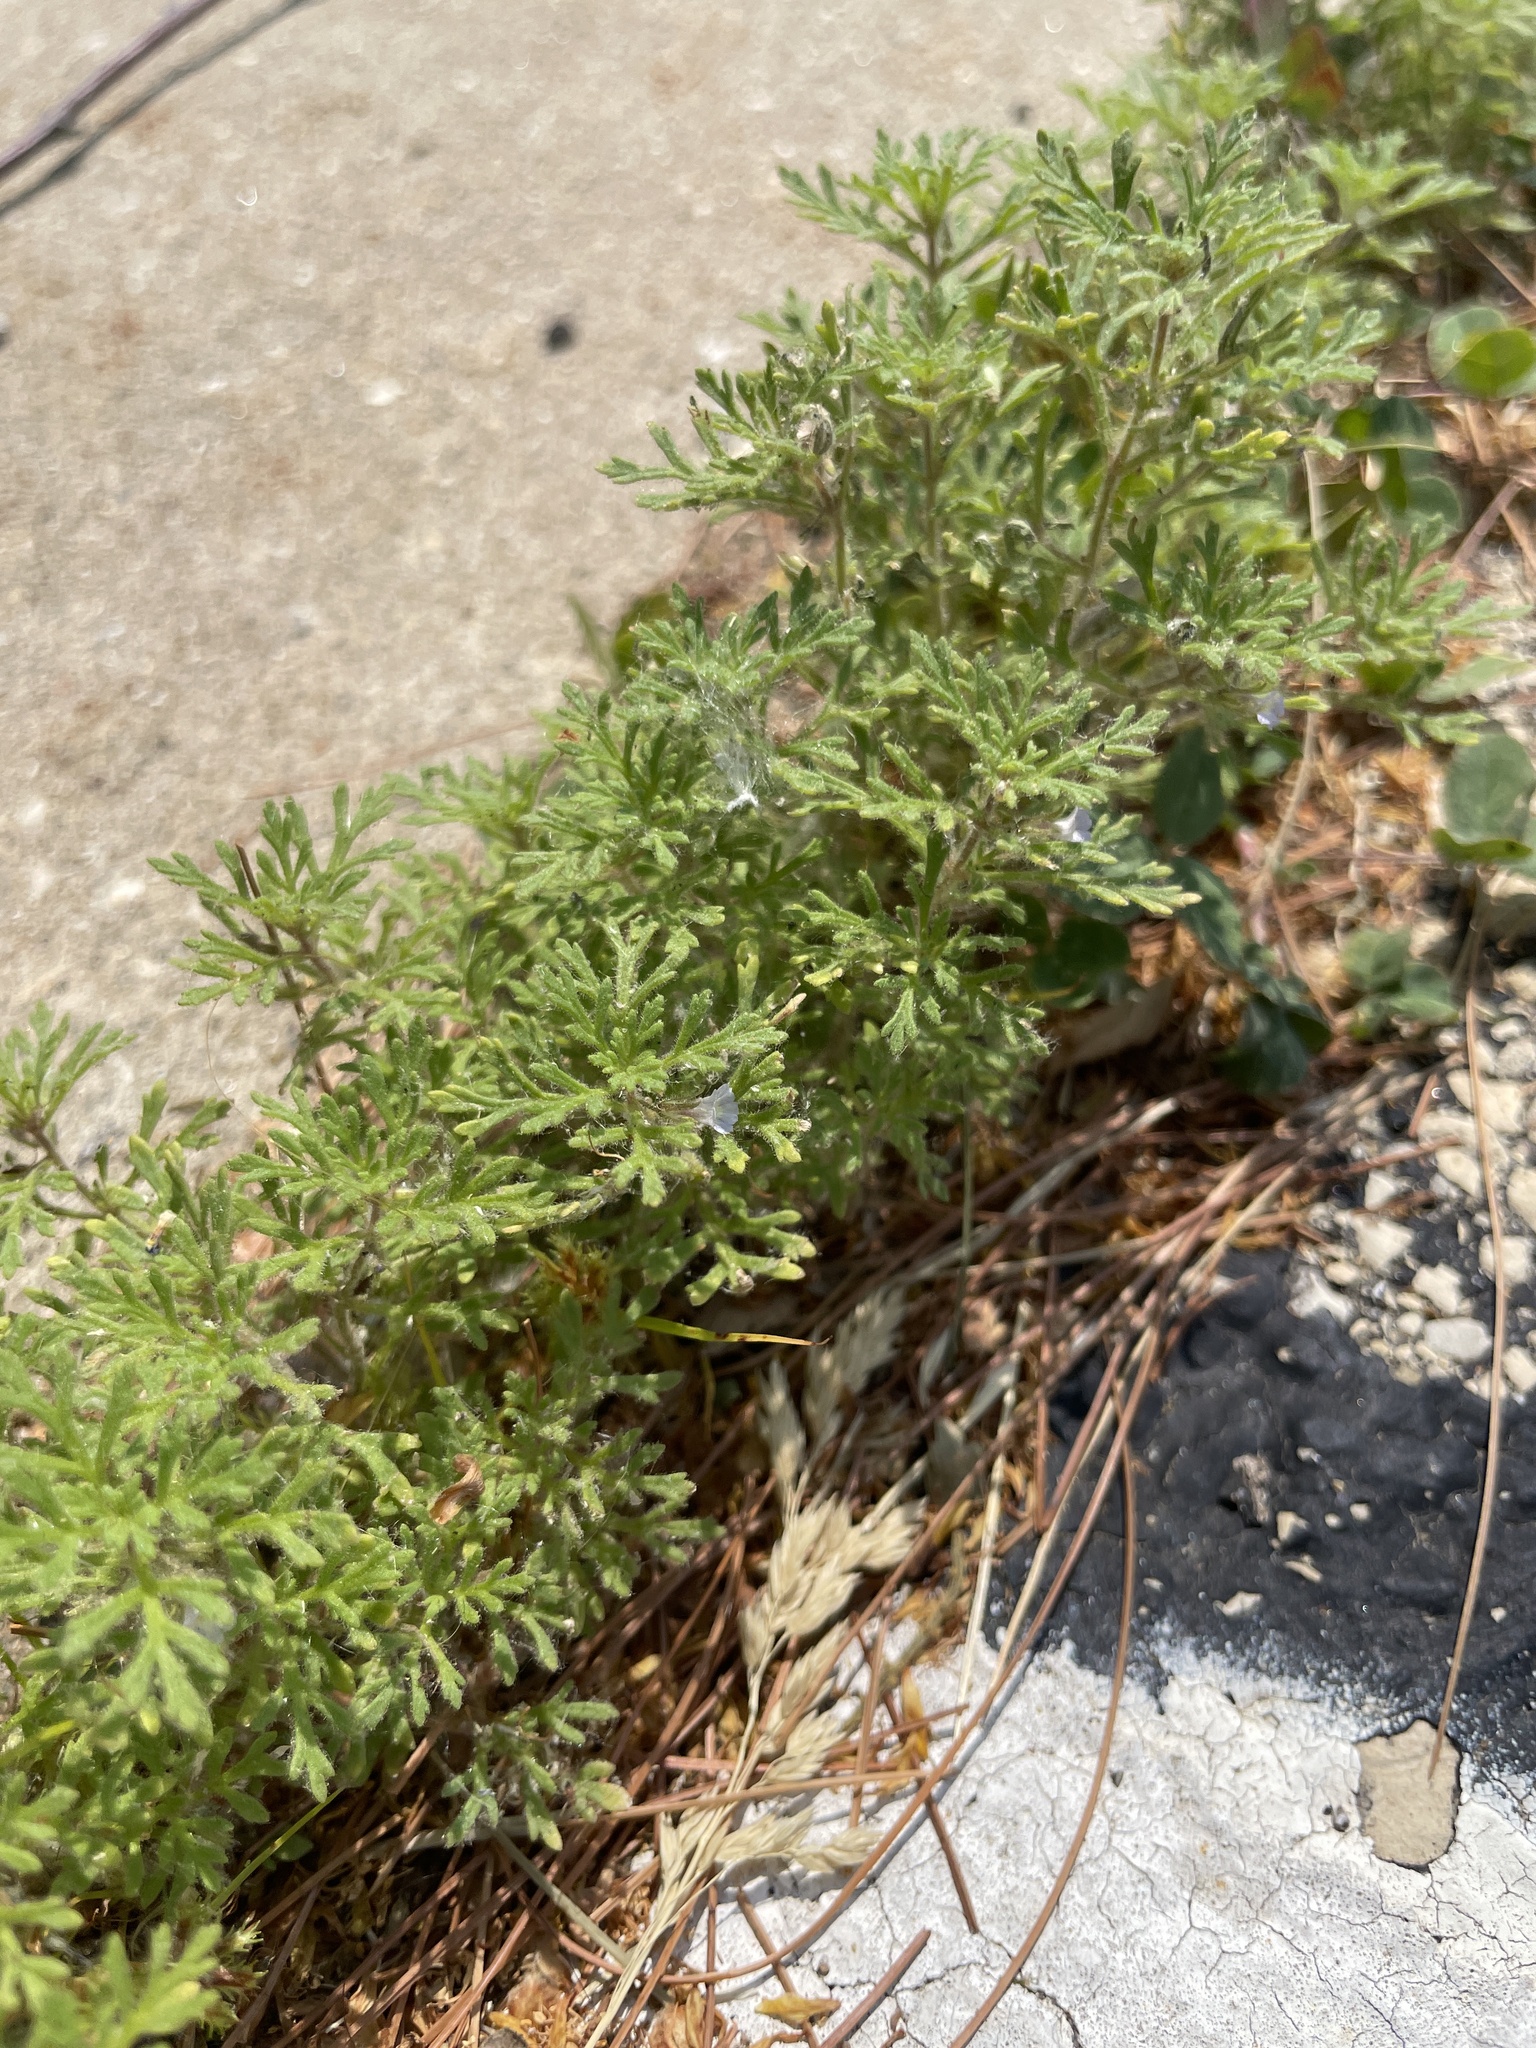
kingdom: Plantae
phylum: Tracheophyta
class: Magnoliopsida
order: Lamiales
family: Plantaginaceae
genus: Leucospora
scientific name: Leucospora multifida
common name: Narrow-leaf paleseed
